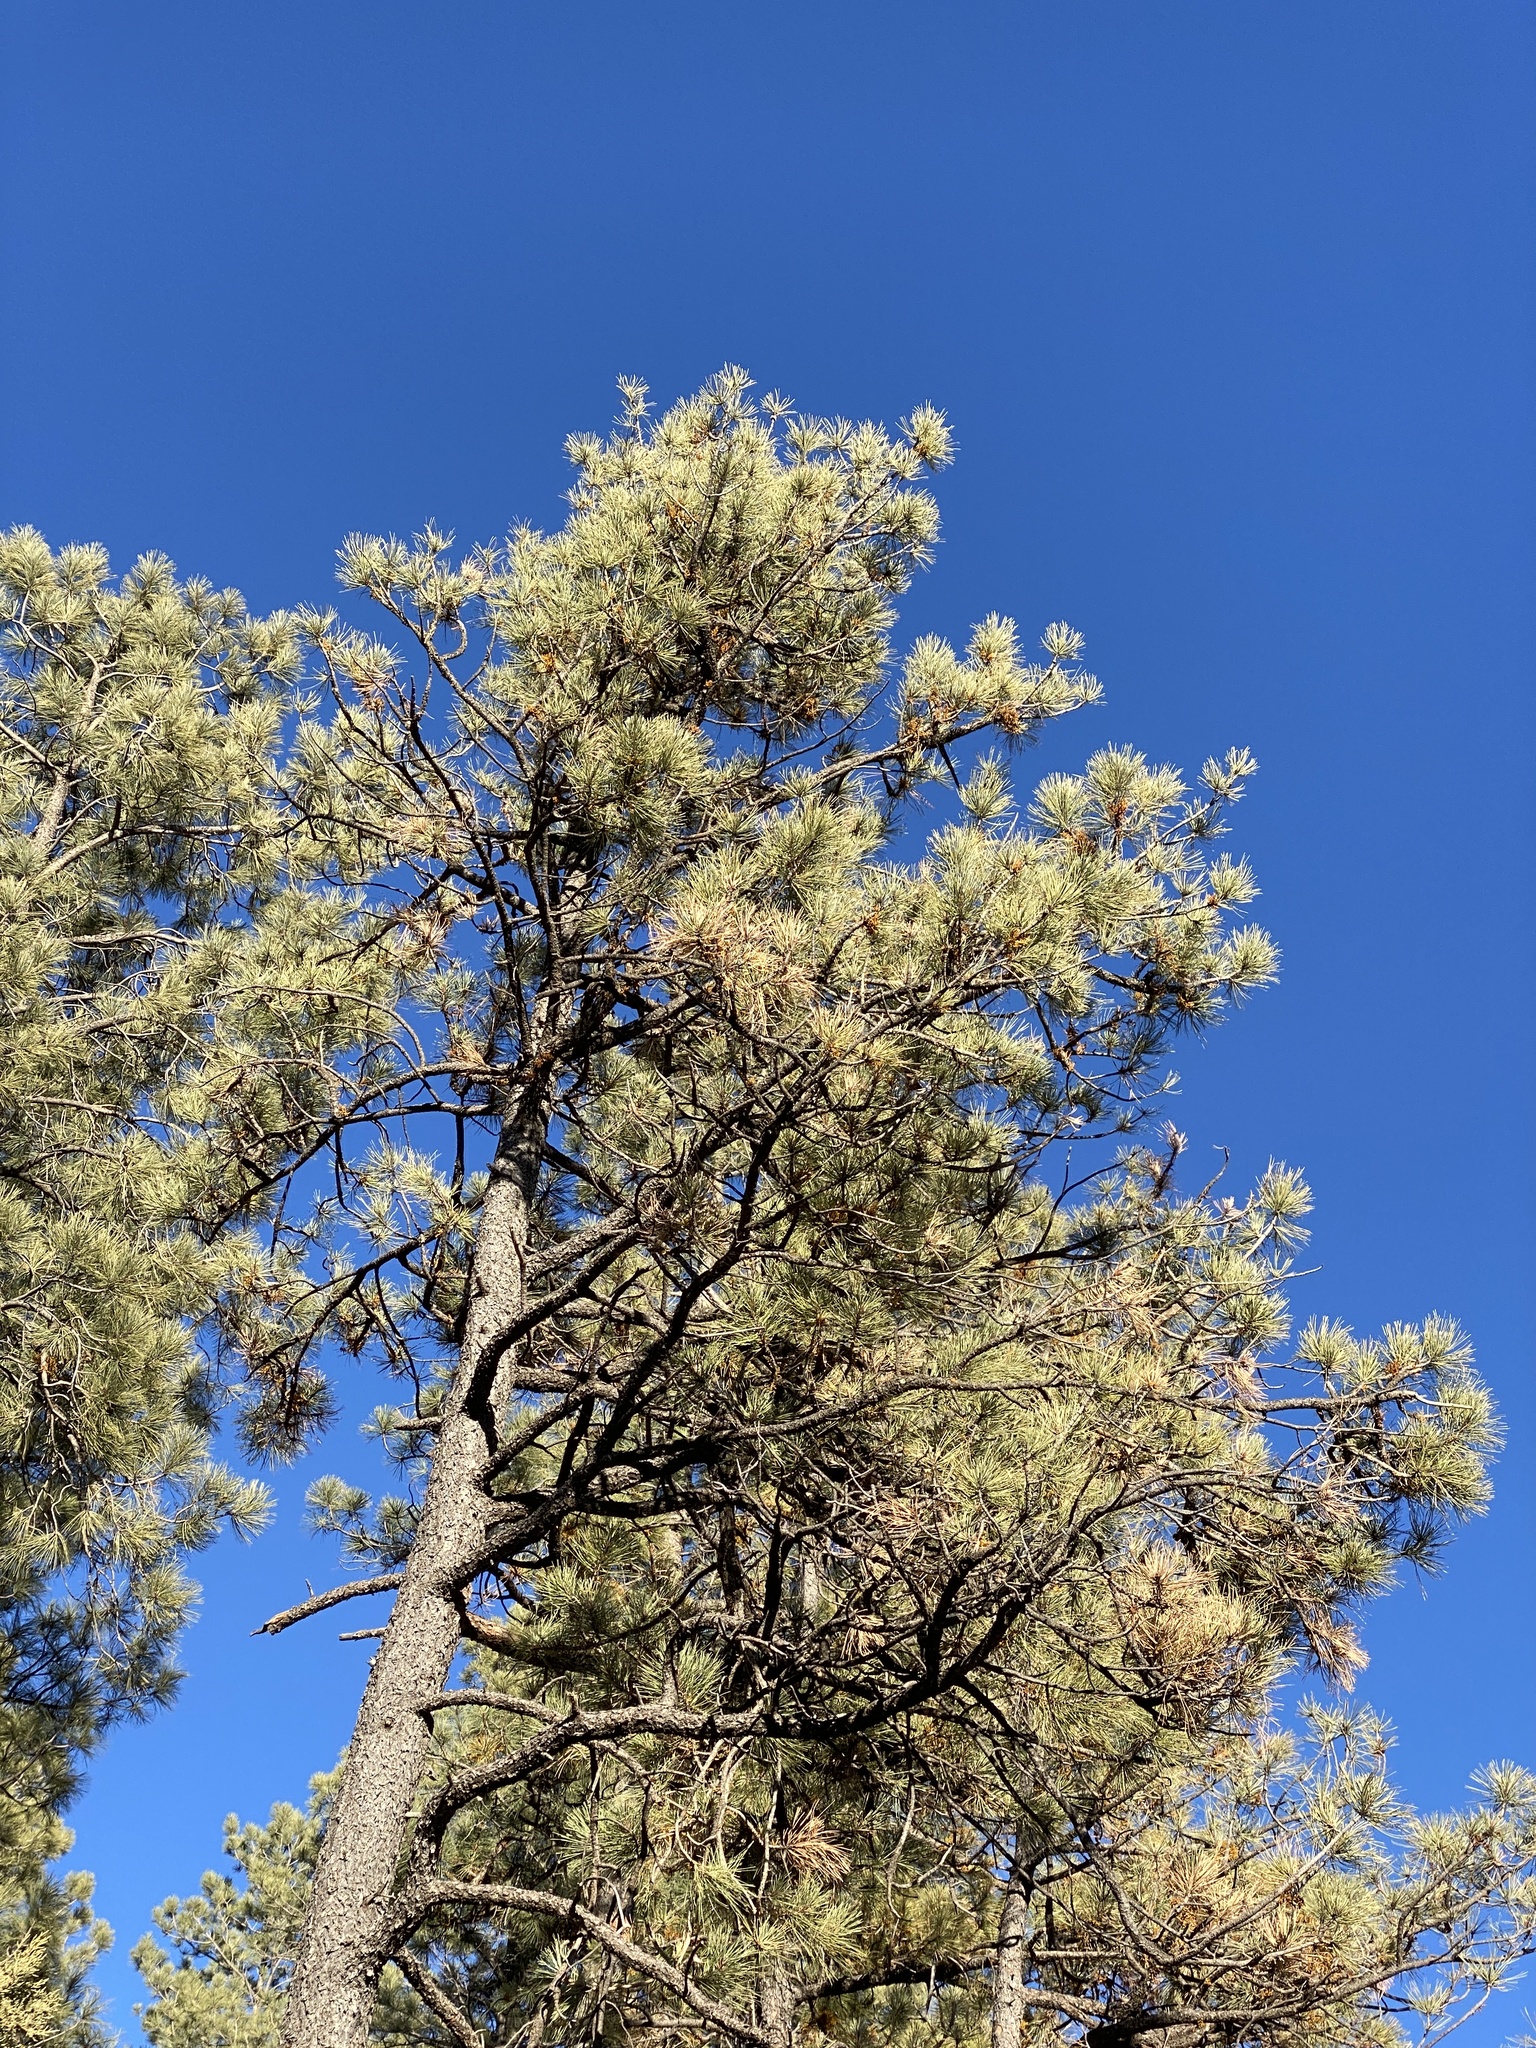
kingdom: Plantae
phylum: Tracheophyta
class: Pinopsida
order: Pinales
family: Pinaceae
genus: Pinus
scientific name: Pinus ponderosa
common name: Western yellow-pine
